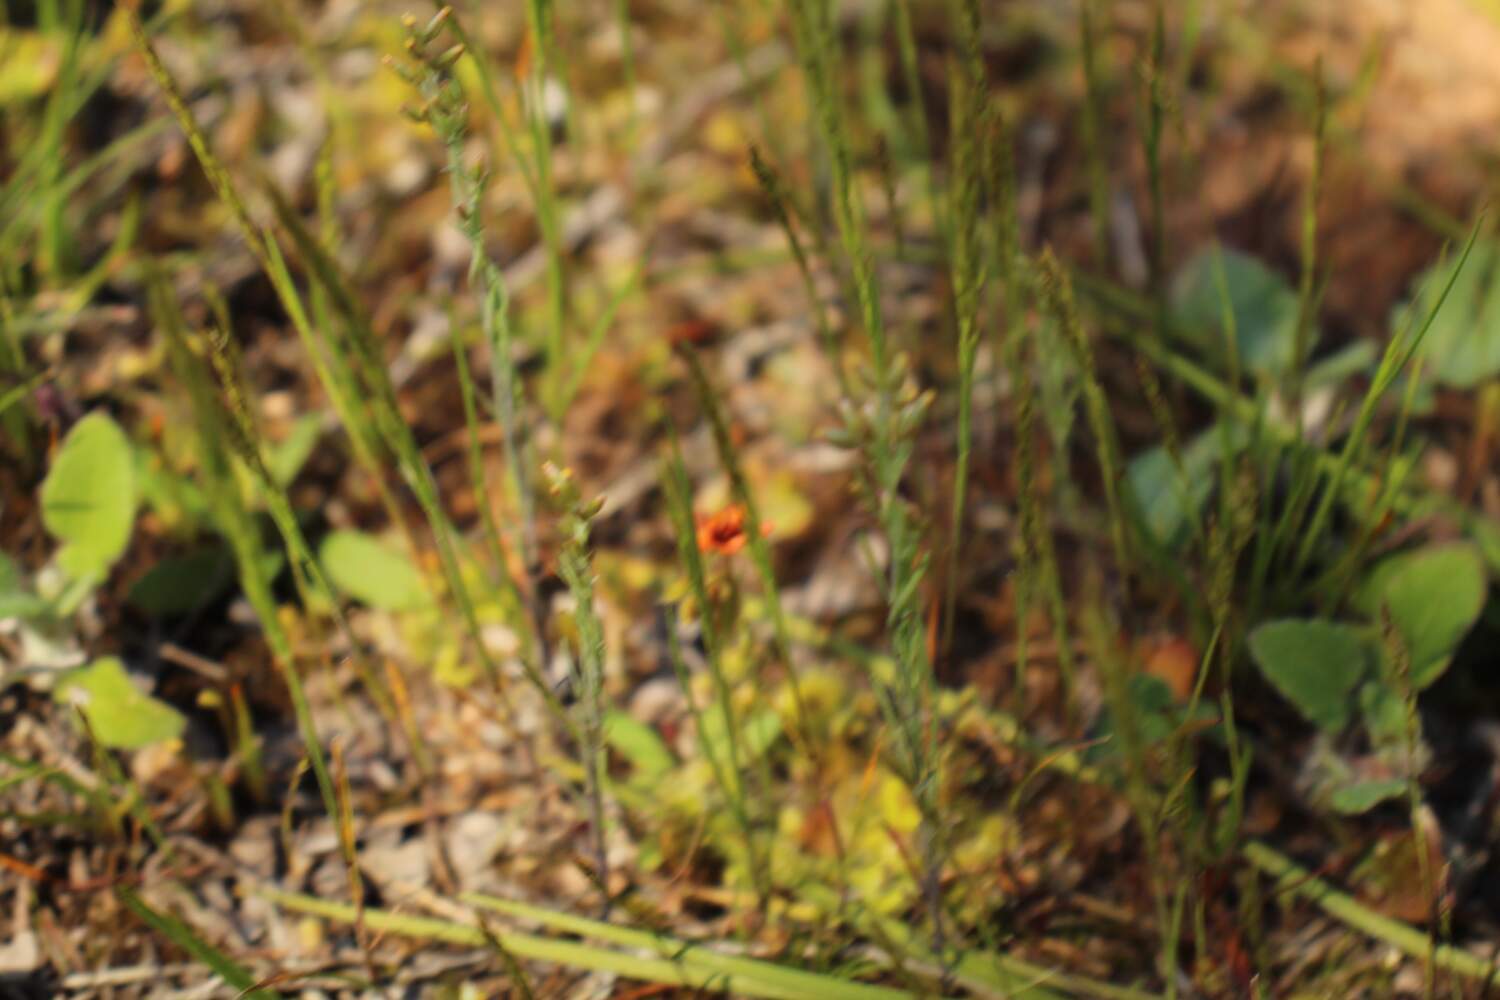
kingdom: Plantae
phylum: Tracheophyta
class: Magnoliopsida
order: Caryophyllales
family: Droseraceae
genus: Drosera
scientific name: Drosera glanduligera
